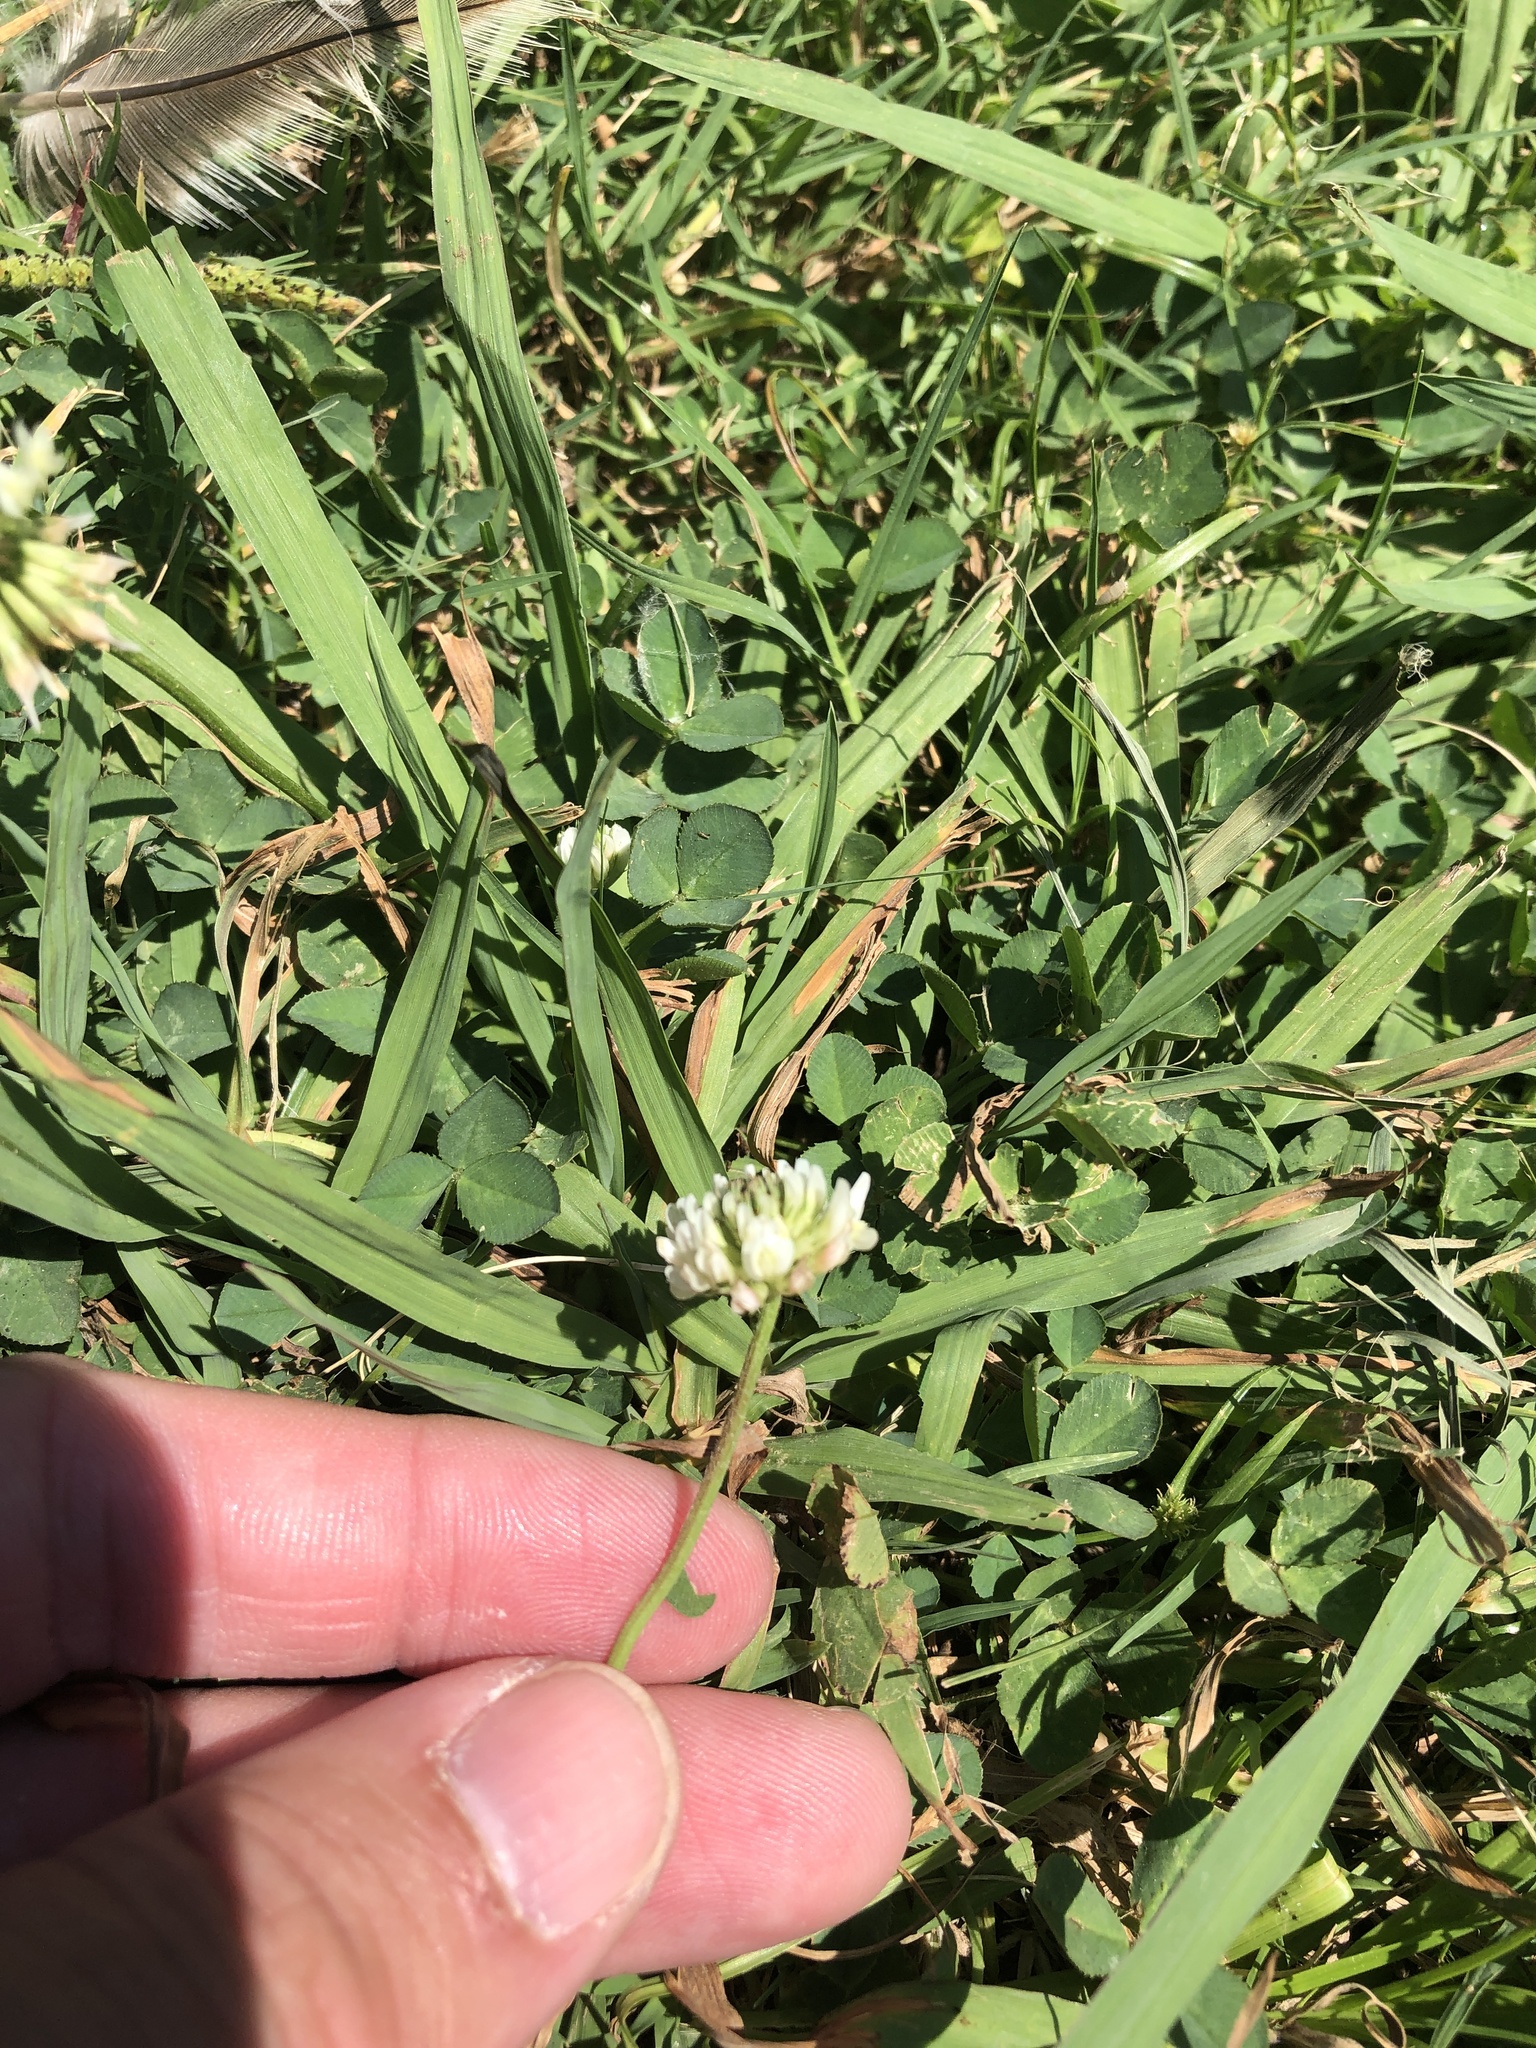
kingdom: Plantae
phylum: Tracheophyta
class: Magnoliopsida
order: Fabales
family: Fabaceae
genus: Trifolium
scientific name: Trifolium repens
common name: White clover
